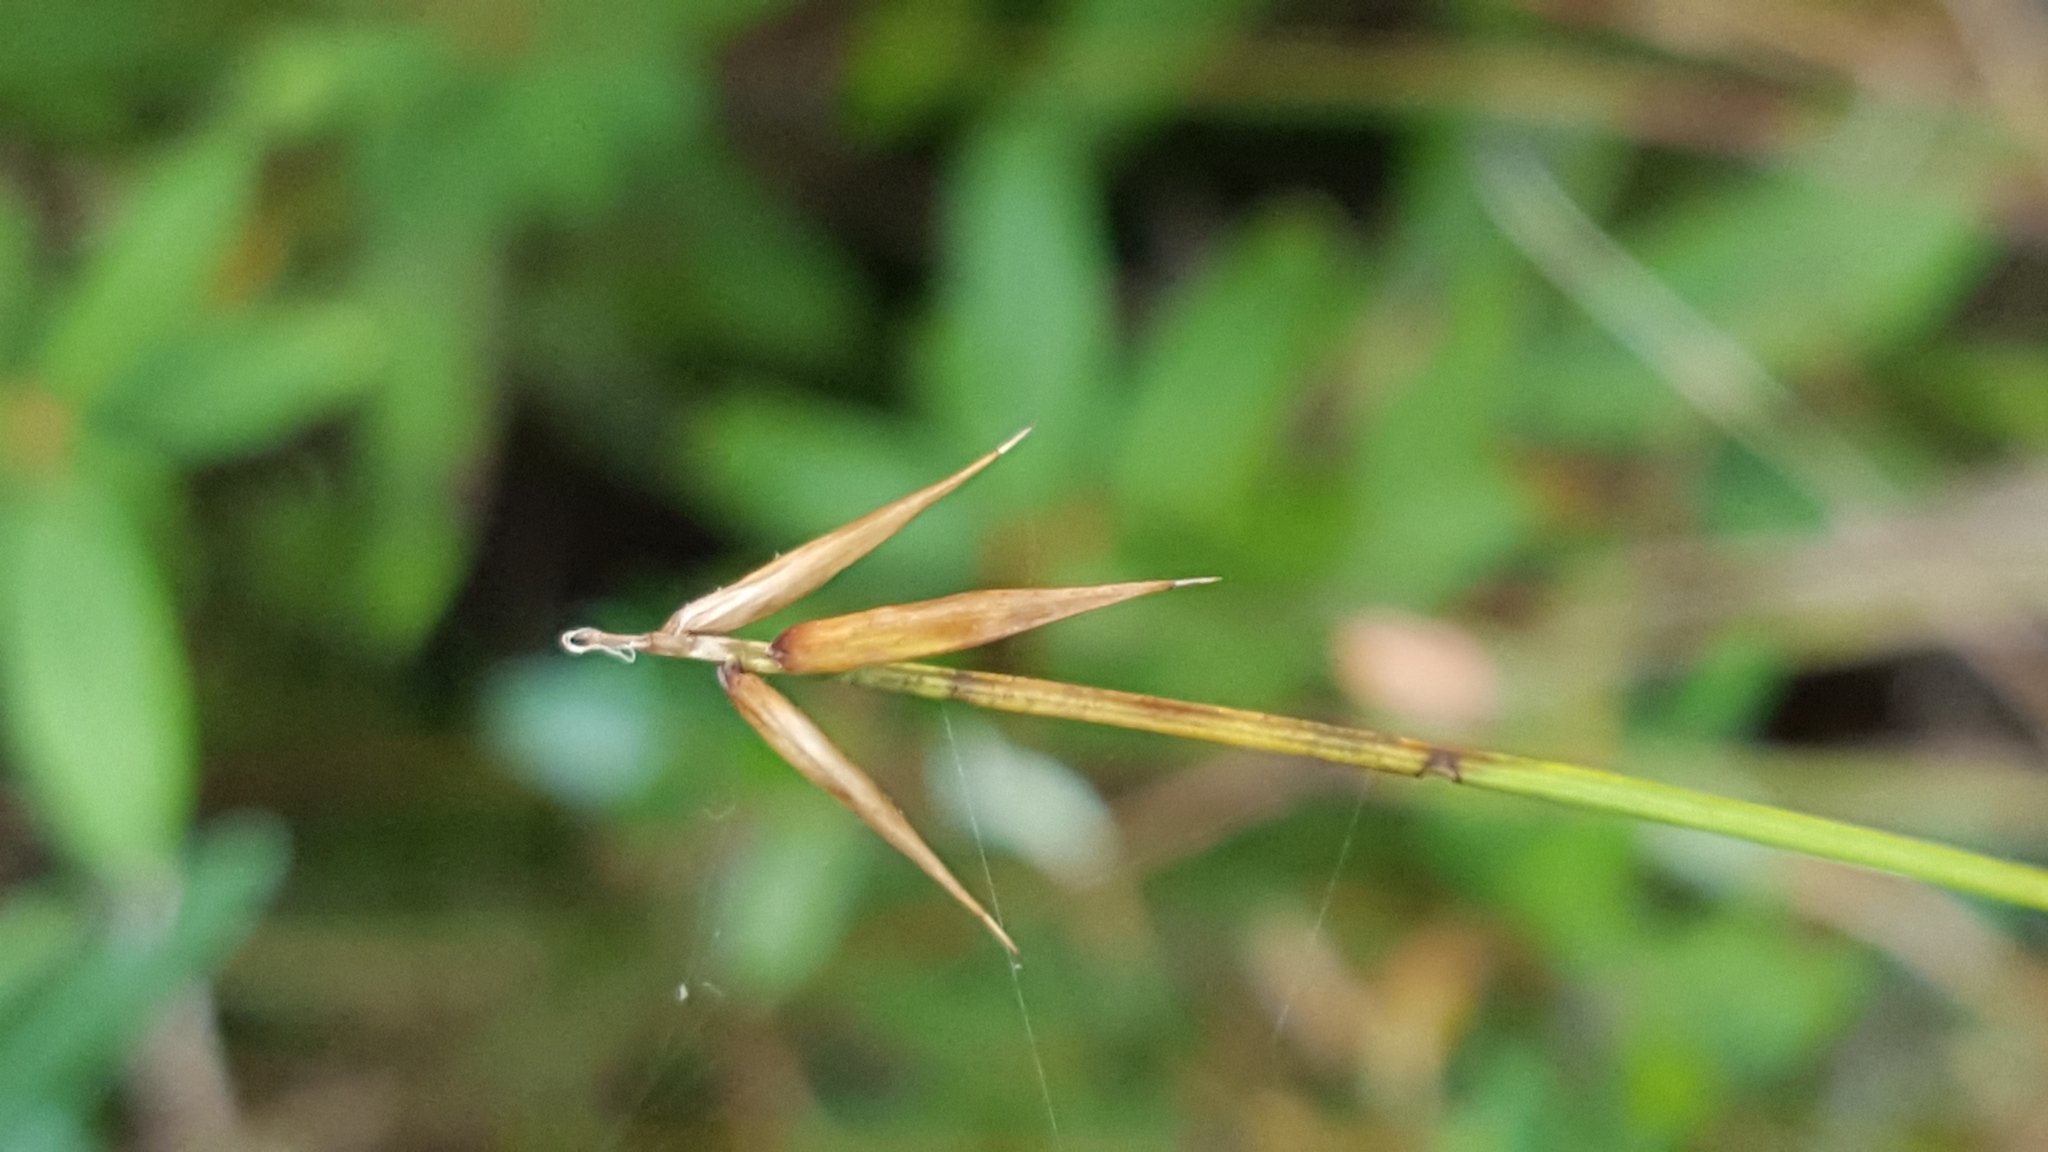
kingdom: Plantae
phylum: Tracheophyta
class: Liliopsida
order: Poales
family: Cyperaceae
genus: Carex
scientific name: Carex pauciflora
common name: Few-flowered sedge
